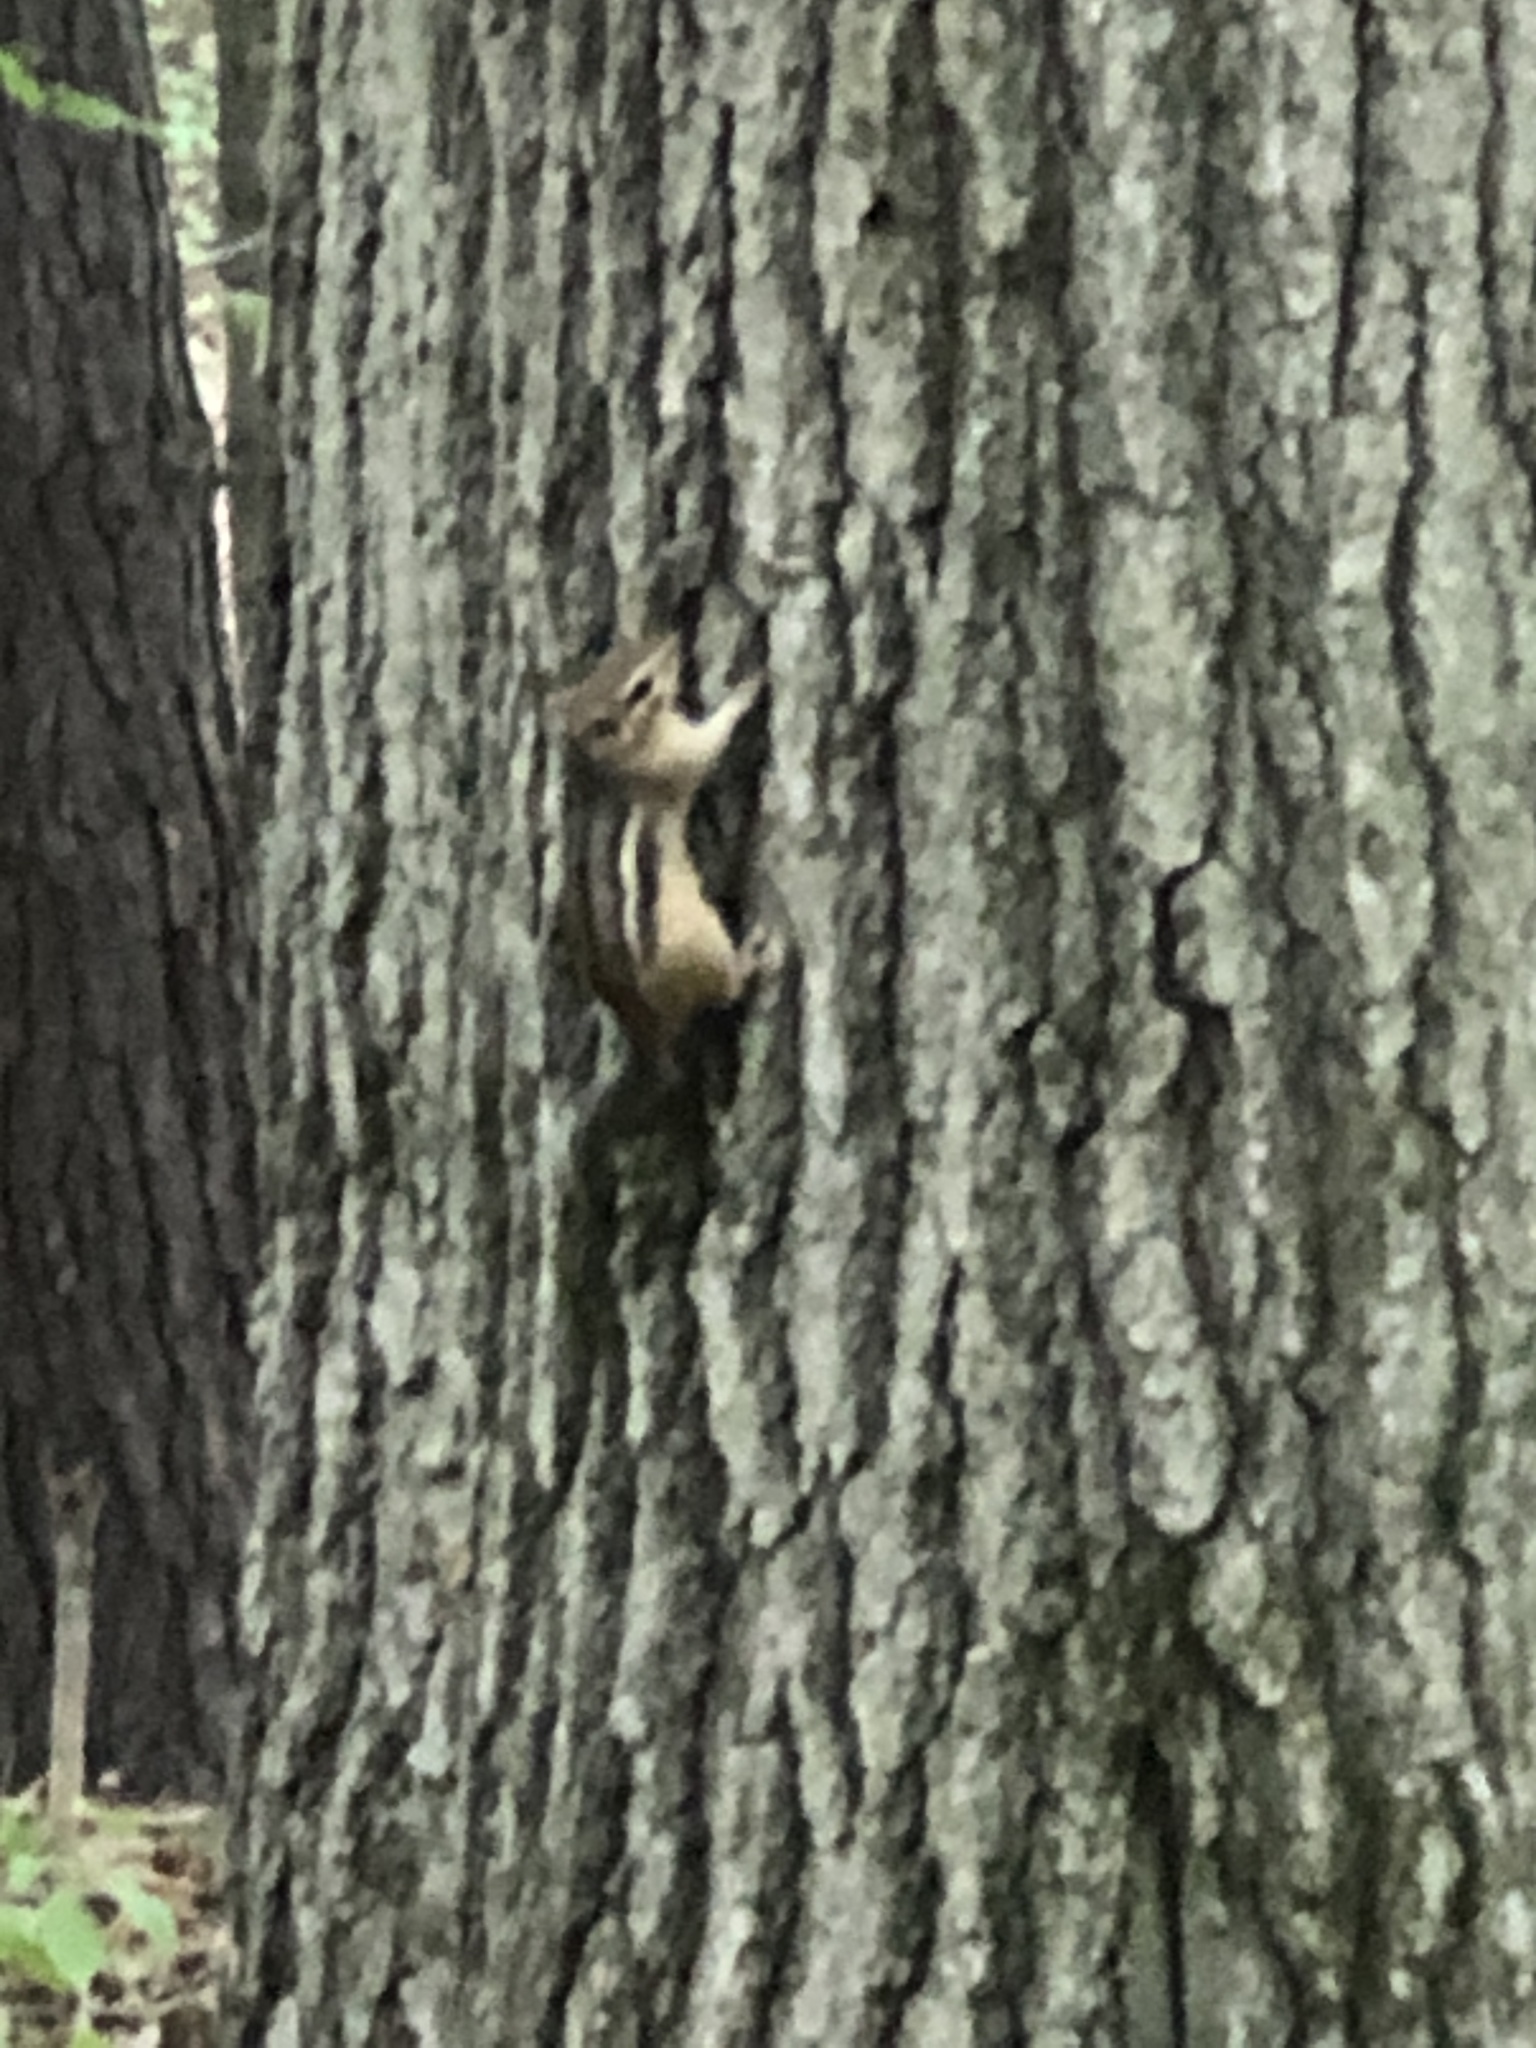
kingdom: Animalia
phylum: Chordata
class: Mammalia
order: Rodentia
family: Sciuridae
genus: Tamias
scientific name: Tamias striatus
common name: Eastern chipmunk
